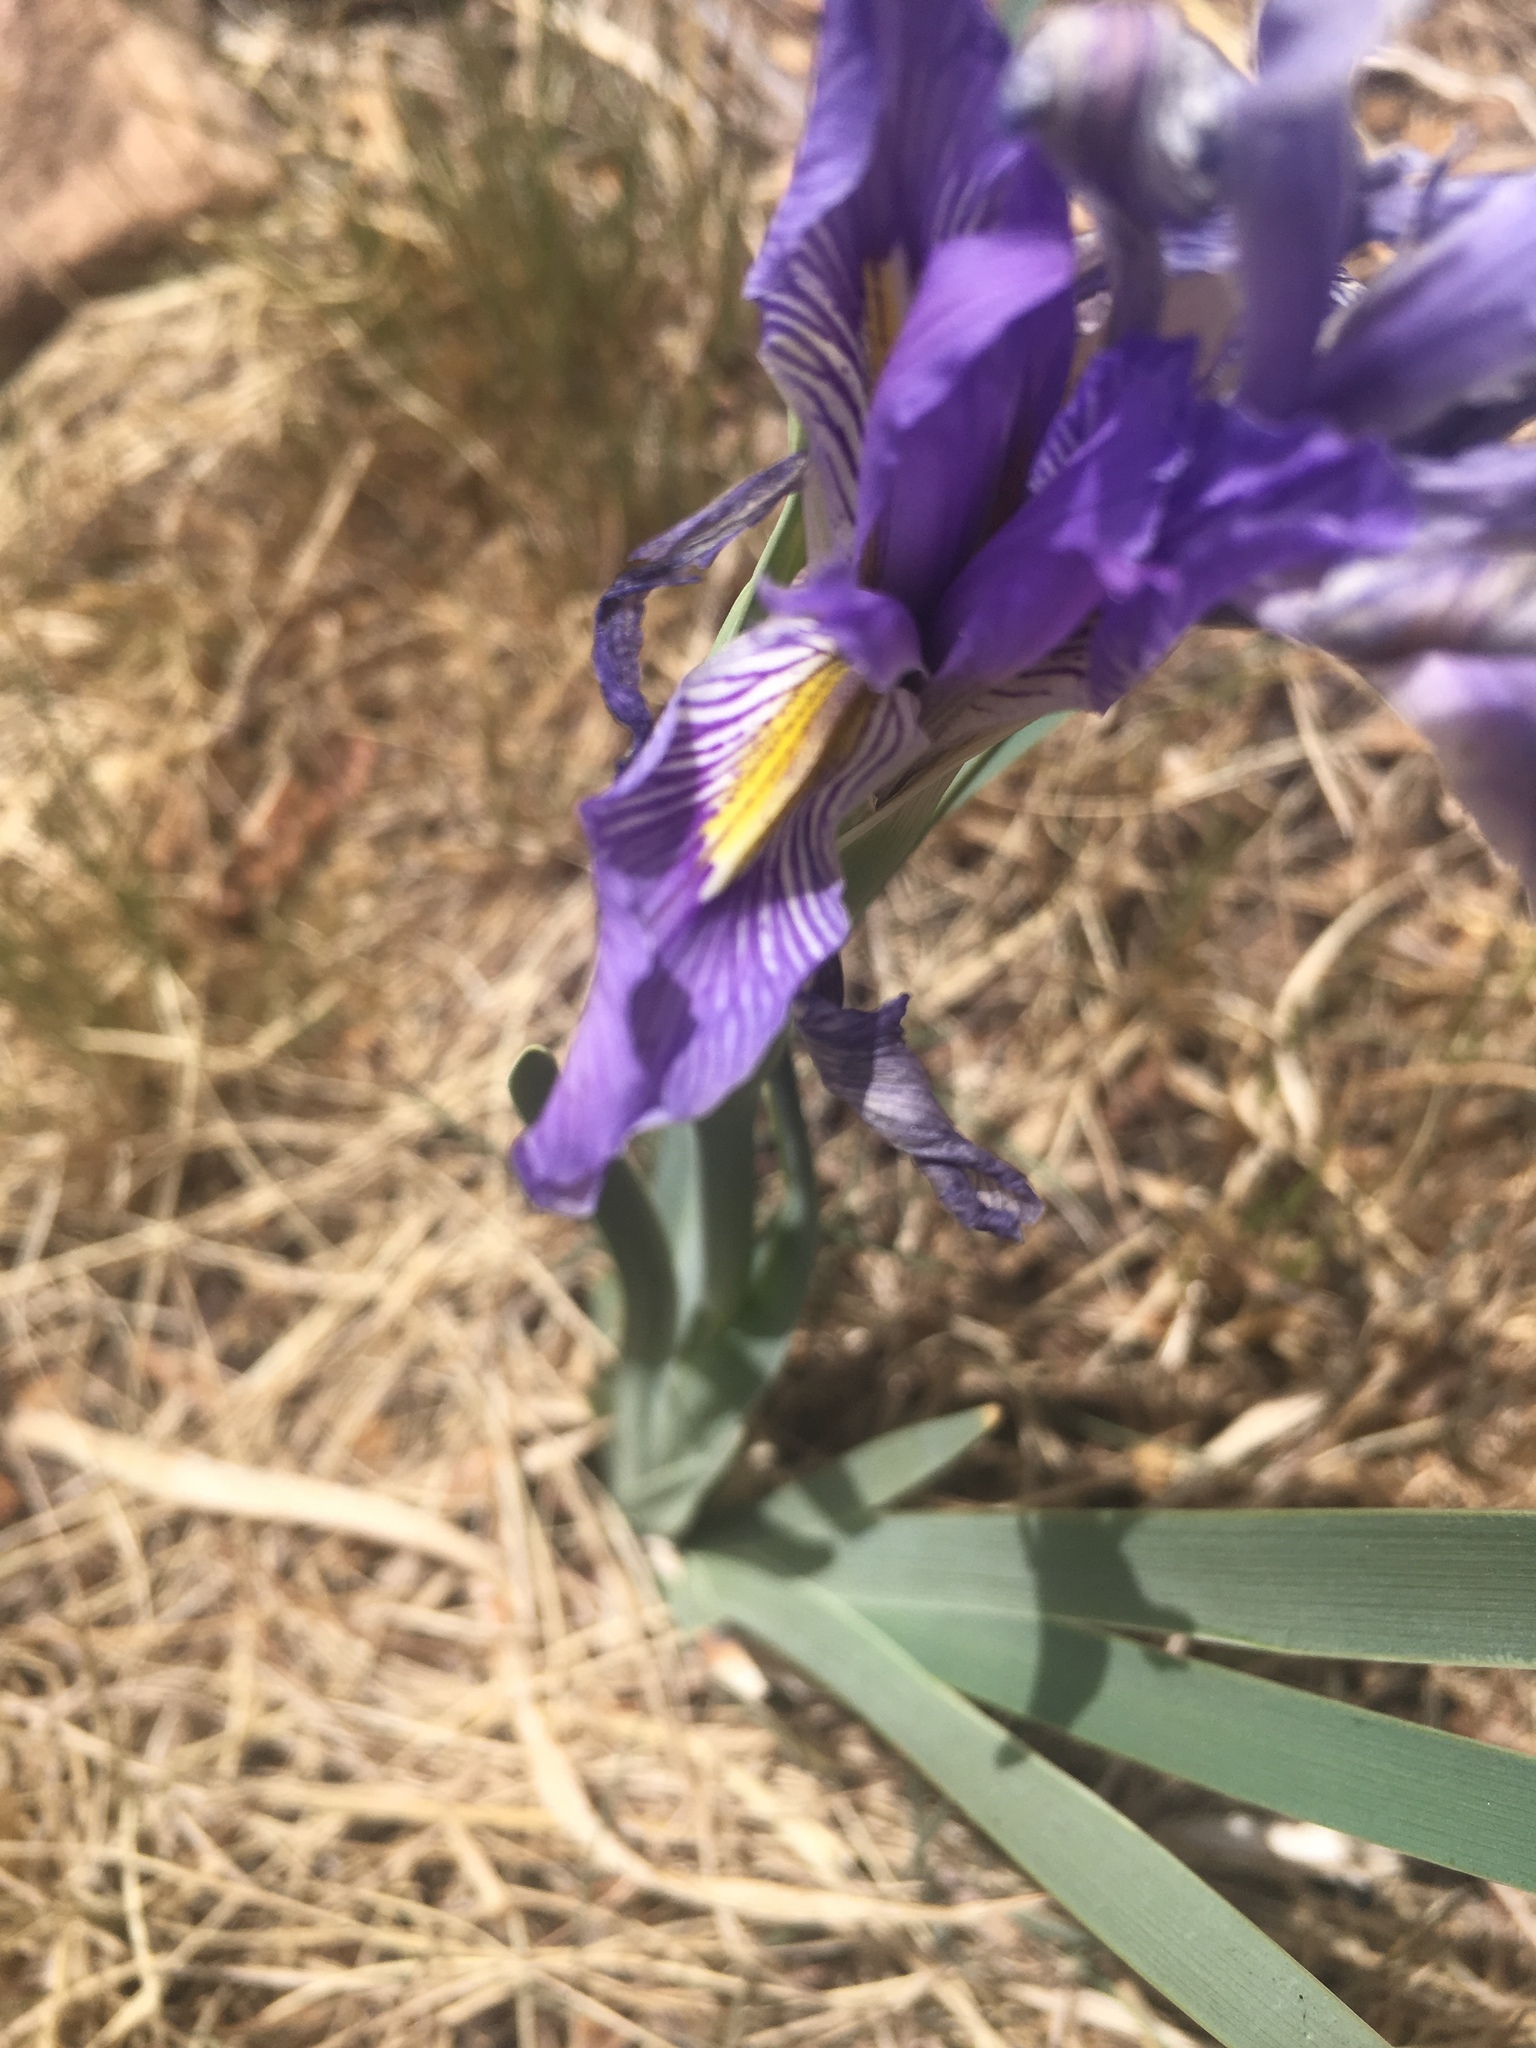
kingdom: Plantae
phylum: Tracheophyta
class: Liliopsida
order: Asparagales
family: Iridaceae
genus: Iris
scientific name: Iris missouriensis
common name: Rocky mountain iris
